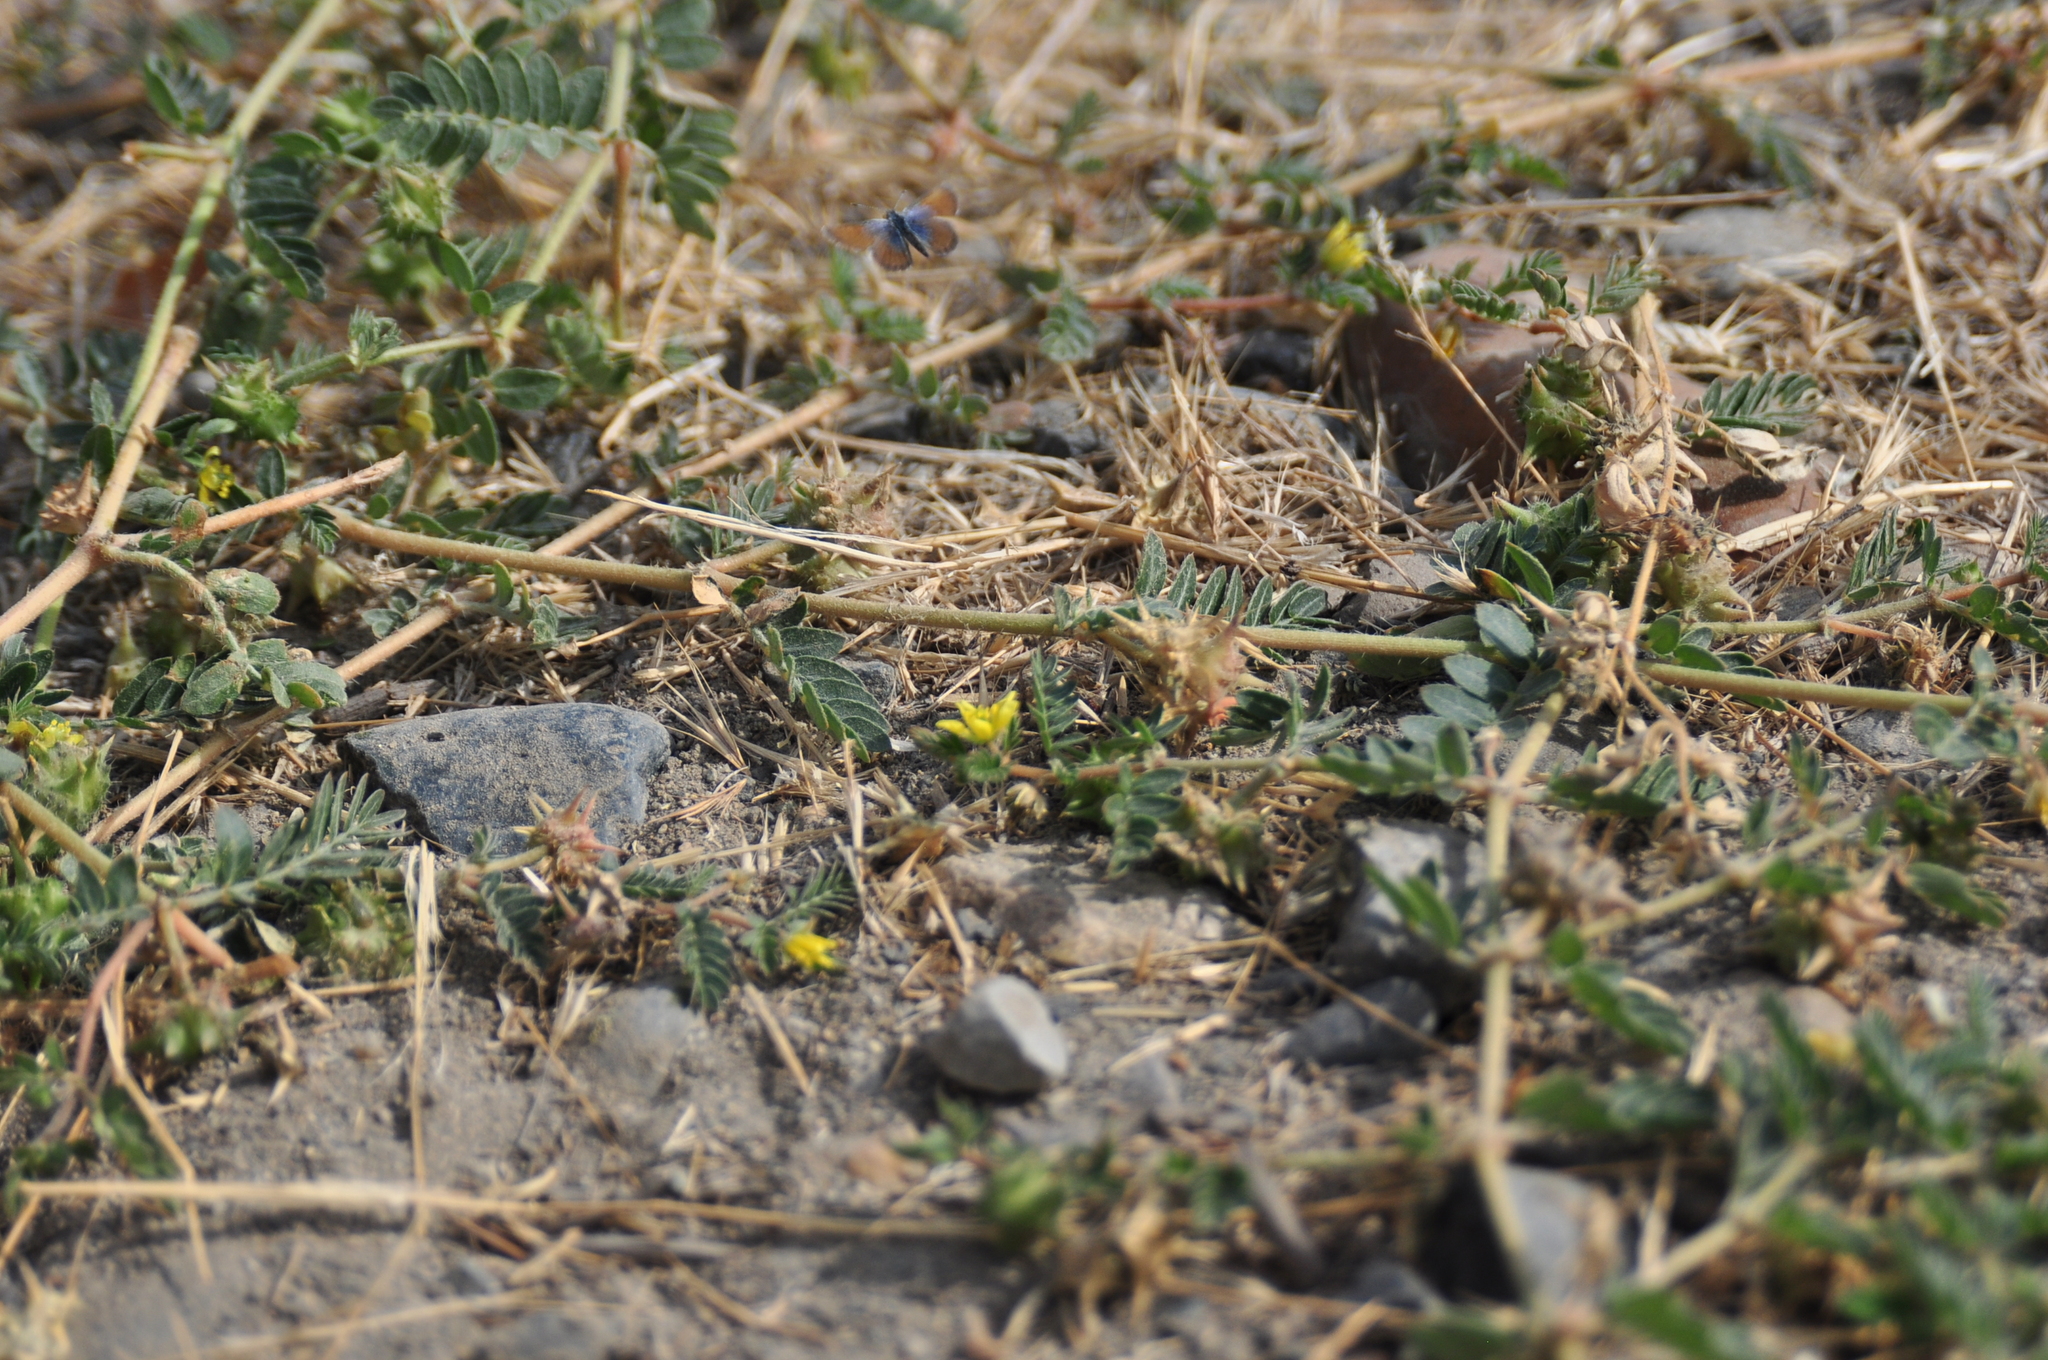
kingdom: Plantae
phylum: Tracheophyta
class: Magnoliopsida
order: Zygophyllales
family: Zygophyllaceae
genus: Tribulus
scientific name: Tribulus terrestris
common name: Puncturevine
